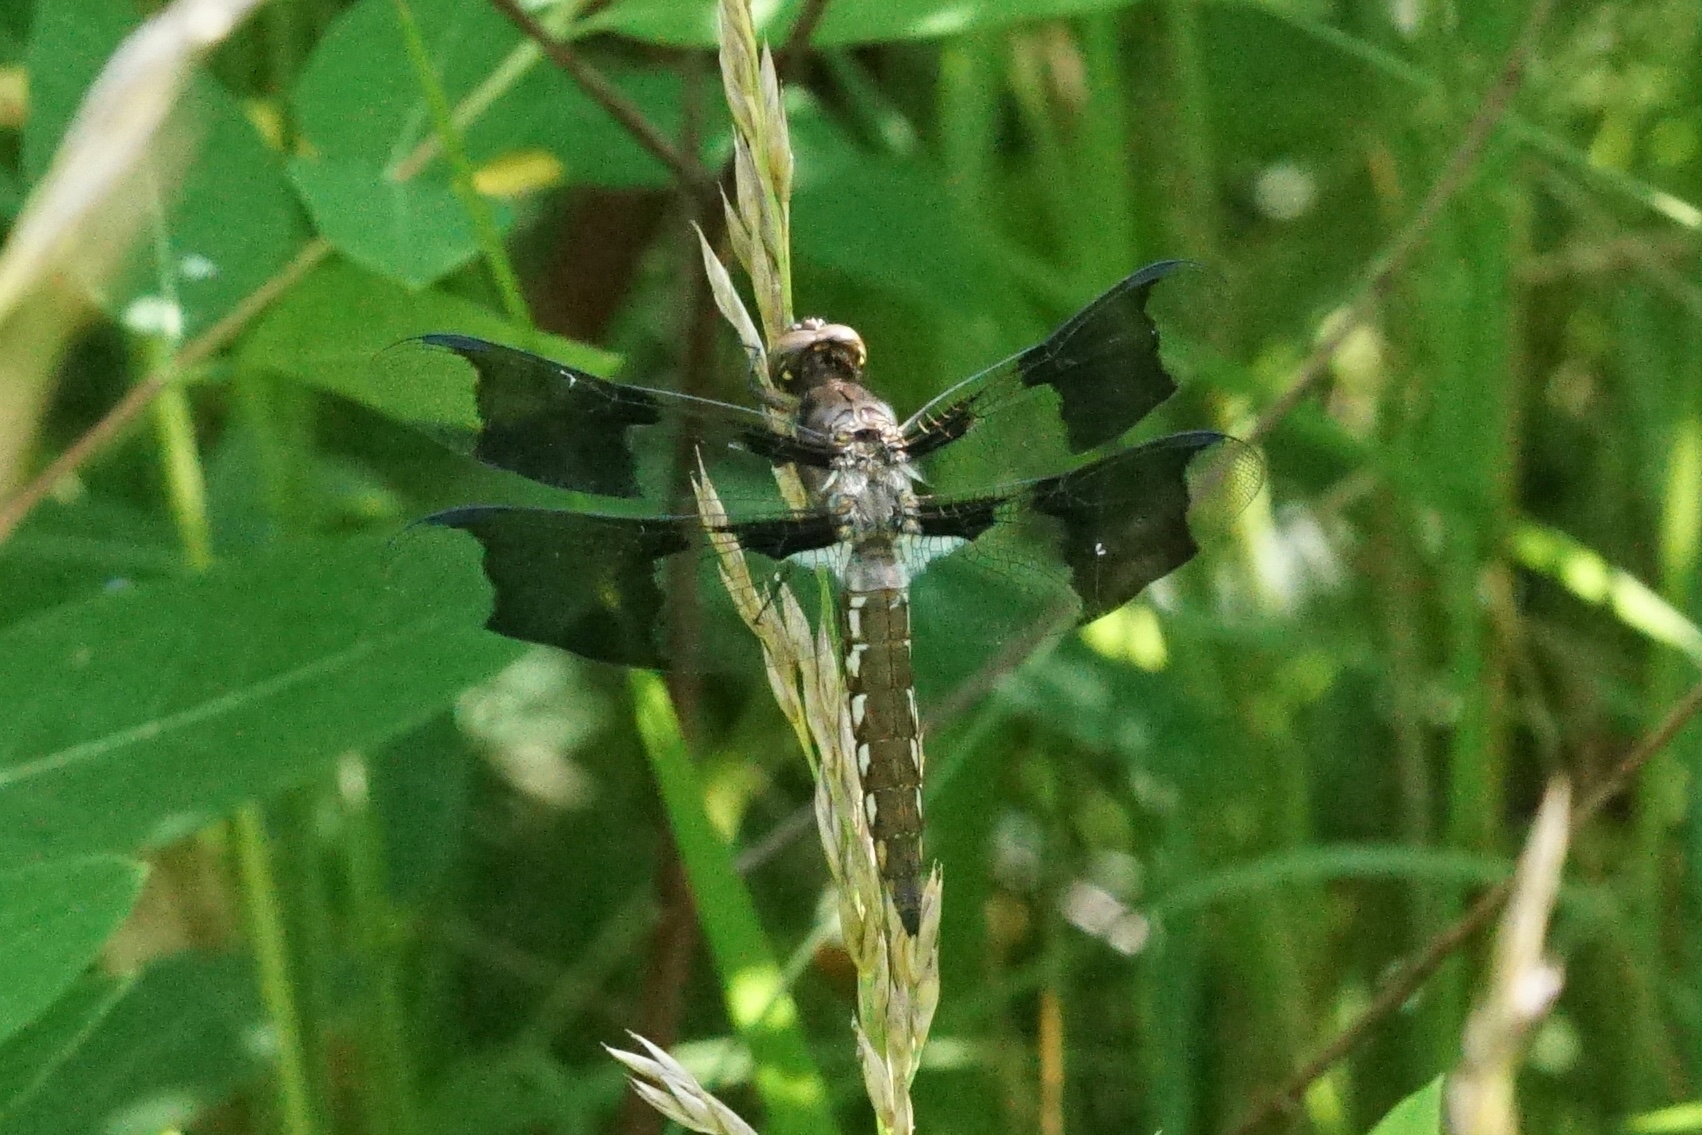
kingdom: Animalia
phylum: Arthropoda
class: Insecta
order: Odonata
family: Libellulidae
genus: Plathemis
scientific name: Plathemis lydia
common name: Common whitetail
